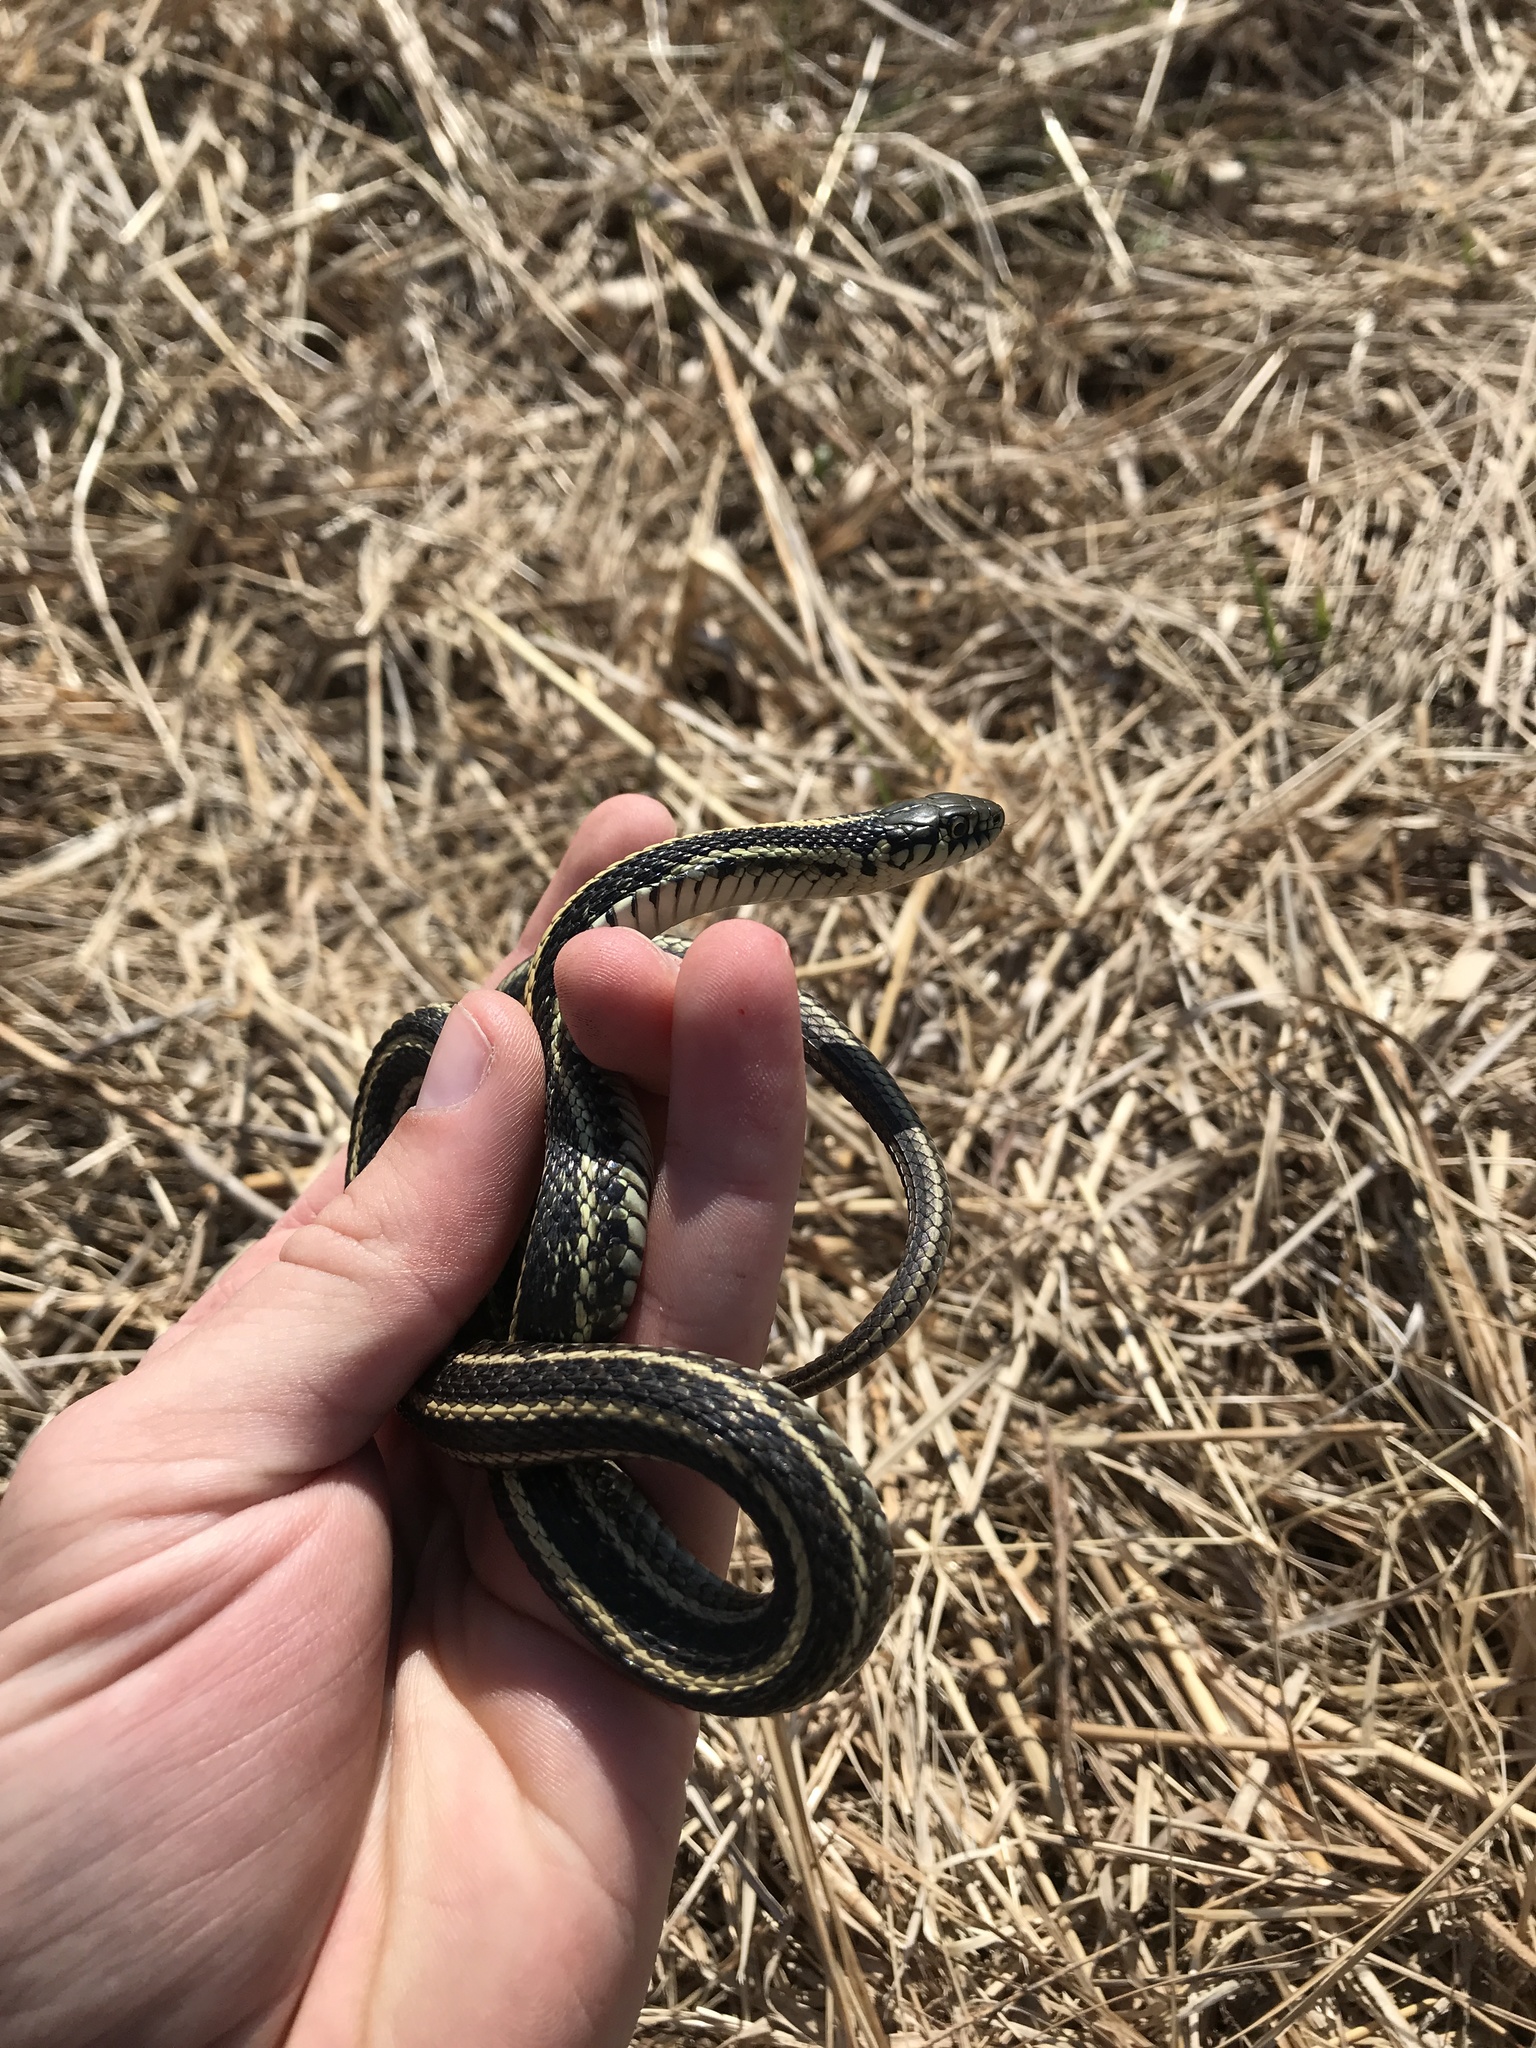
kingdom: Animalia
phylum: Chordata
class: Squamata
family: Colubridae
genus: Thamnophis
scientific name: Thamnophis radix
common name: Plains garter snake
